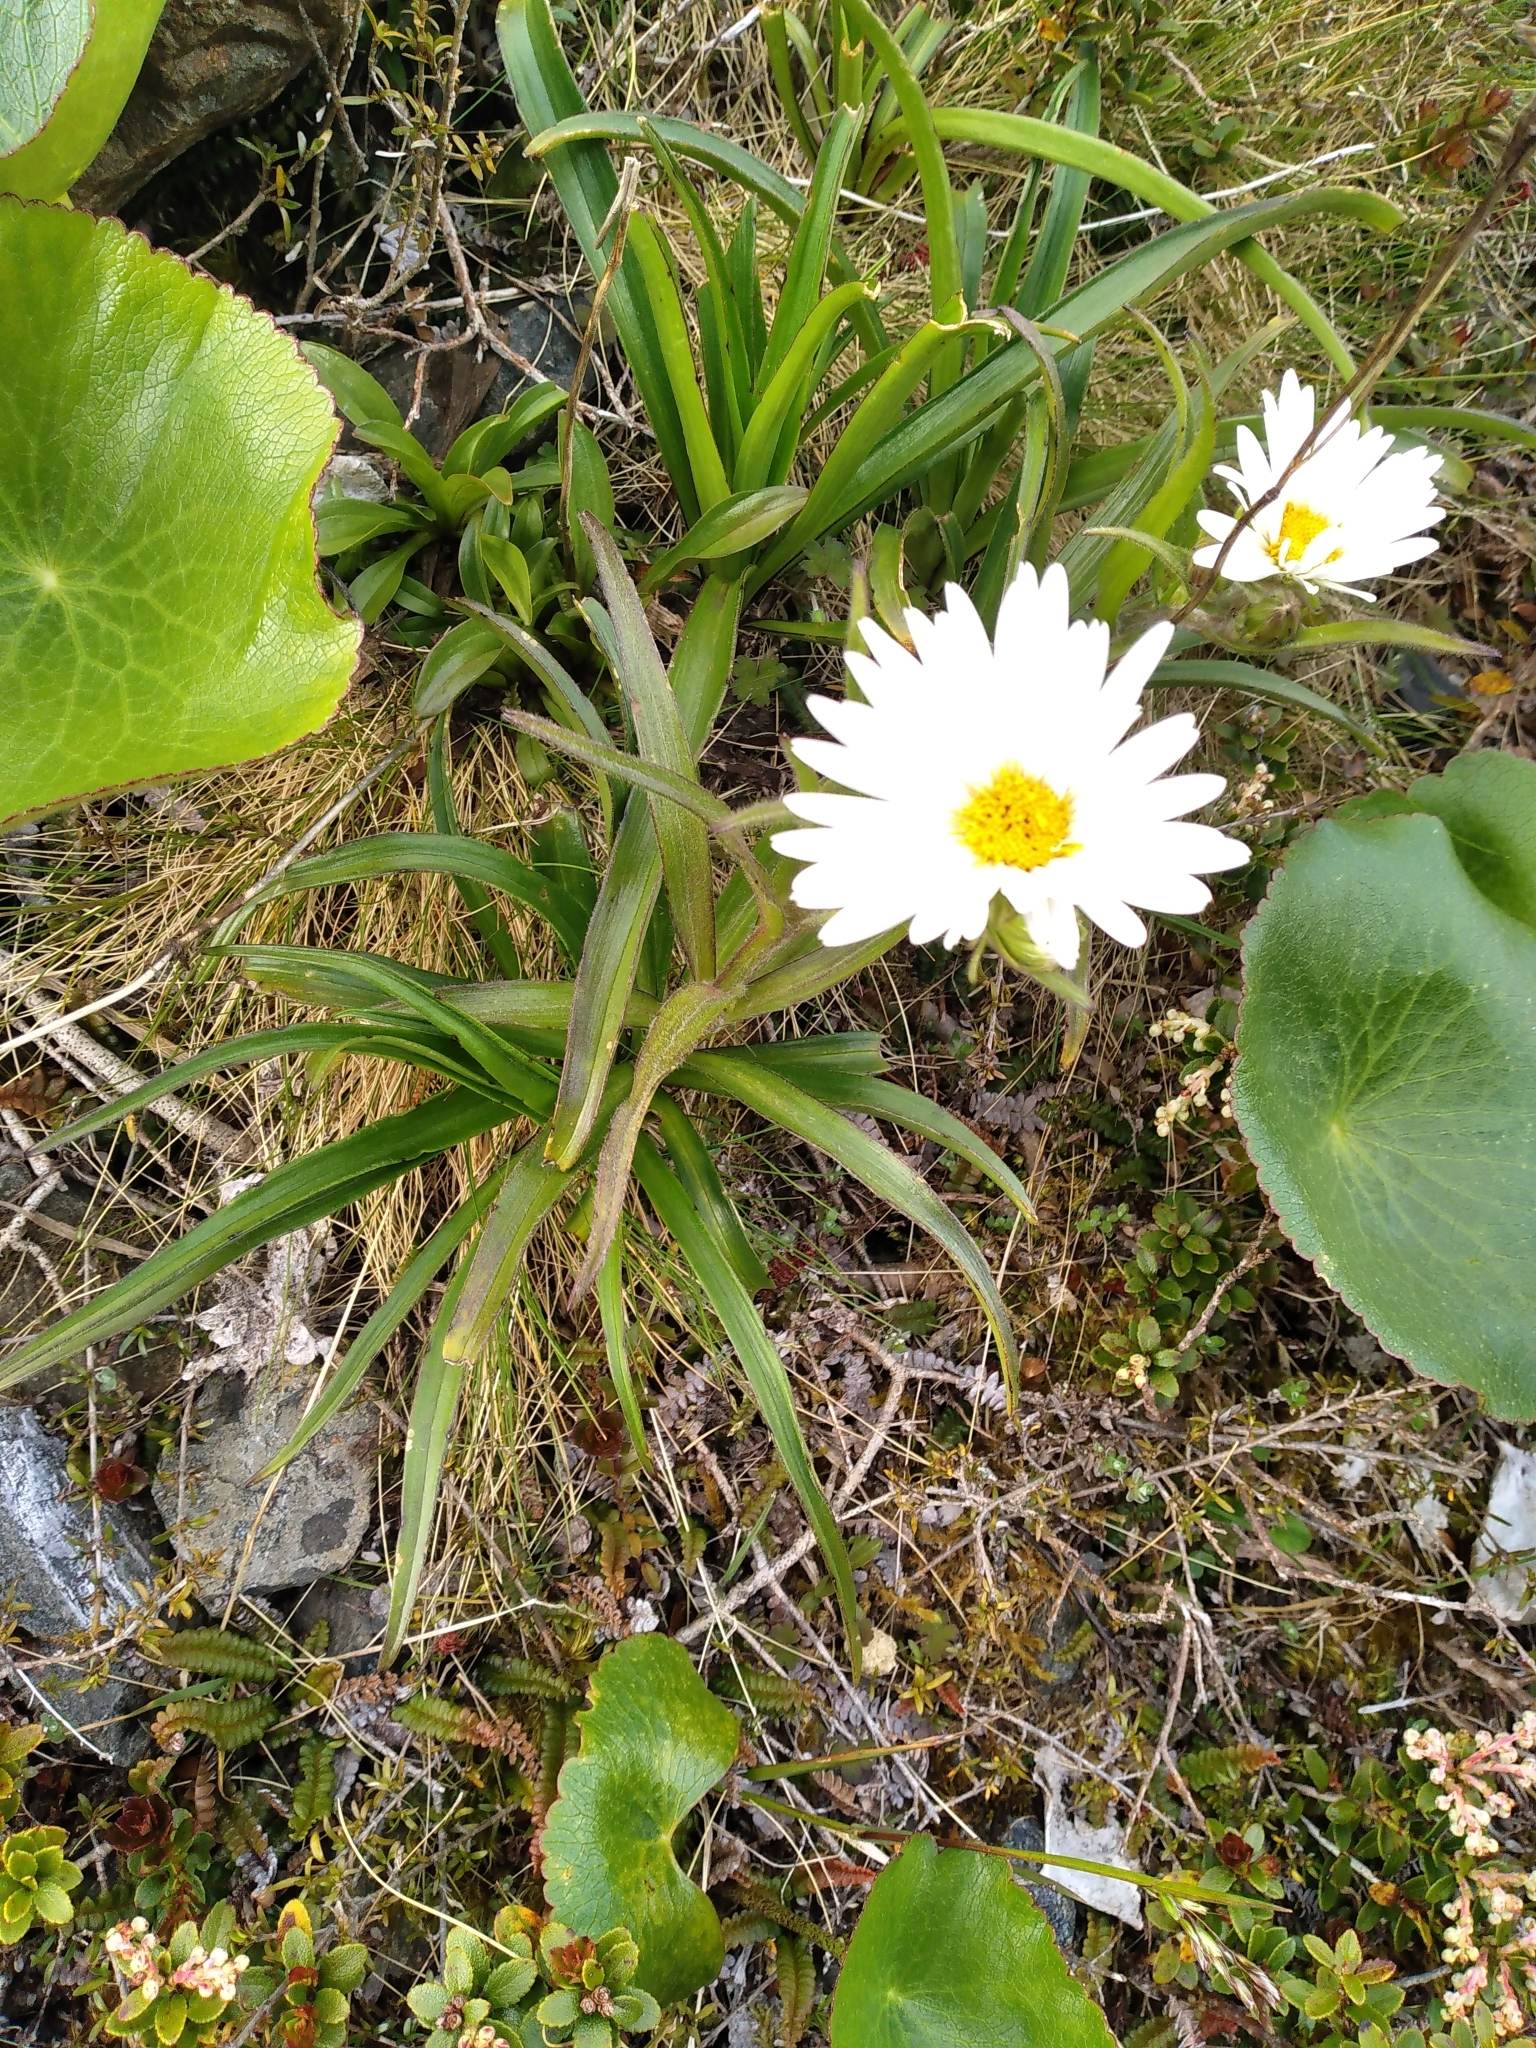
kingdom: Plantae
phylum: Tracheophyta
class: Magnoliopsida
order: Asterales
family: Asteraceae
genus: Dolichoglottis
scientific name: Dolichoglottis scorzoneroides
